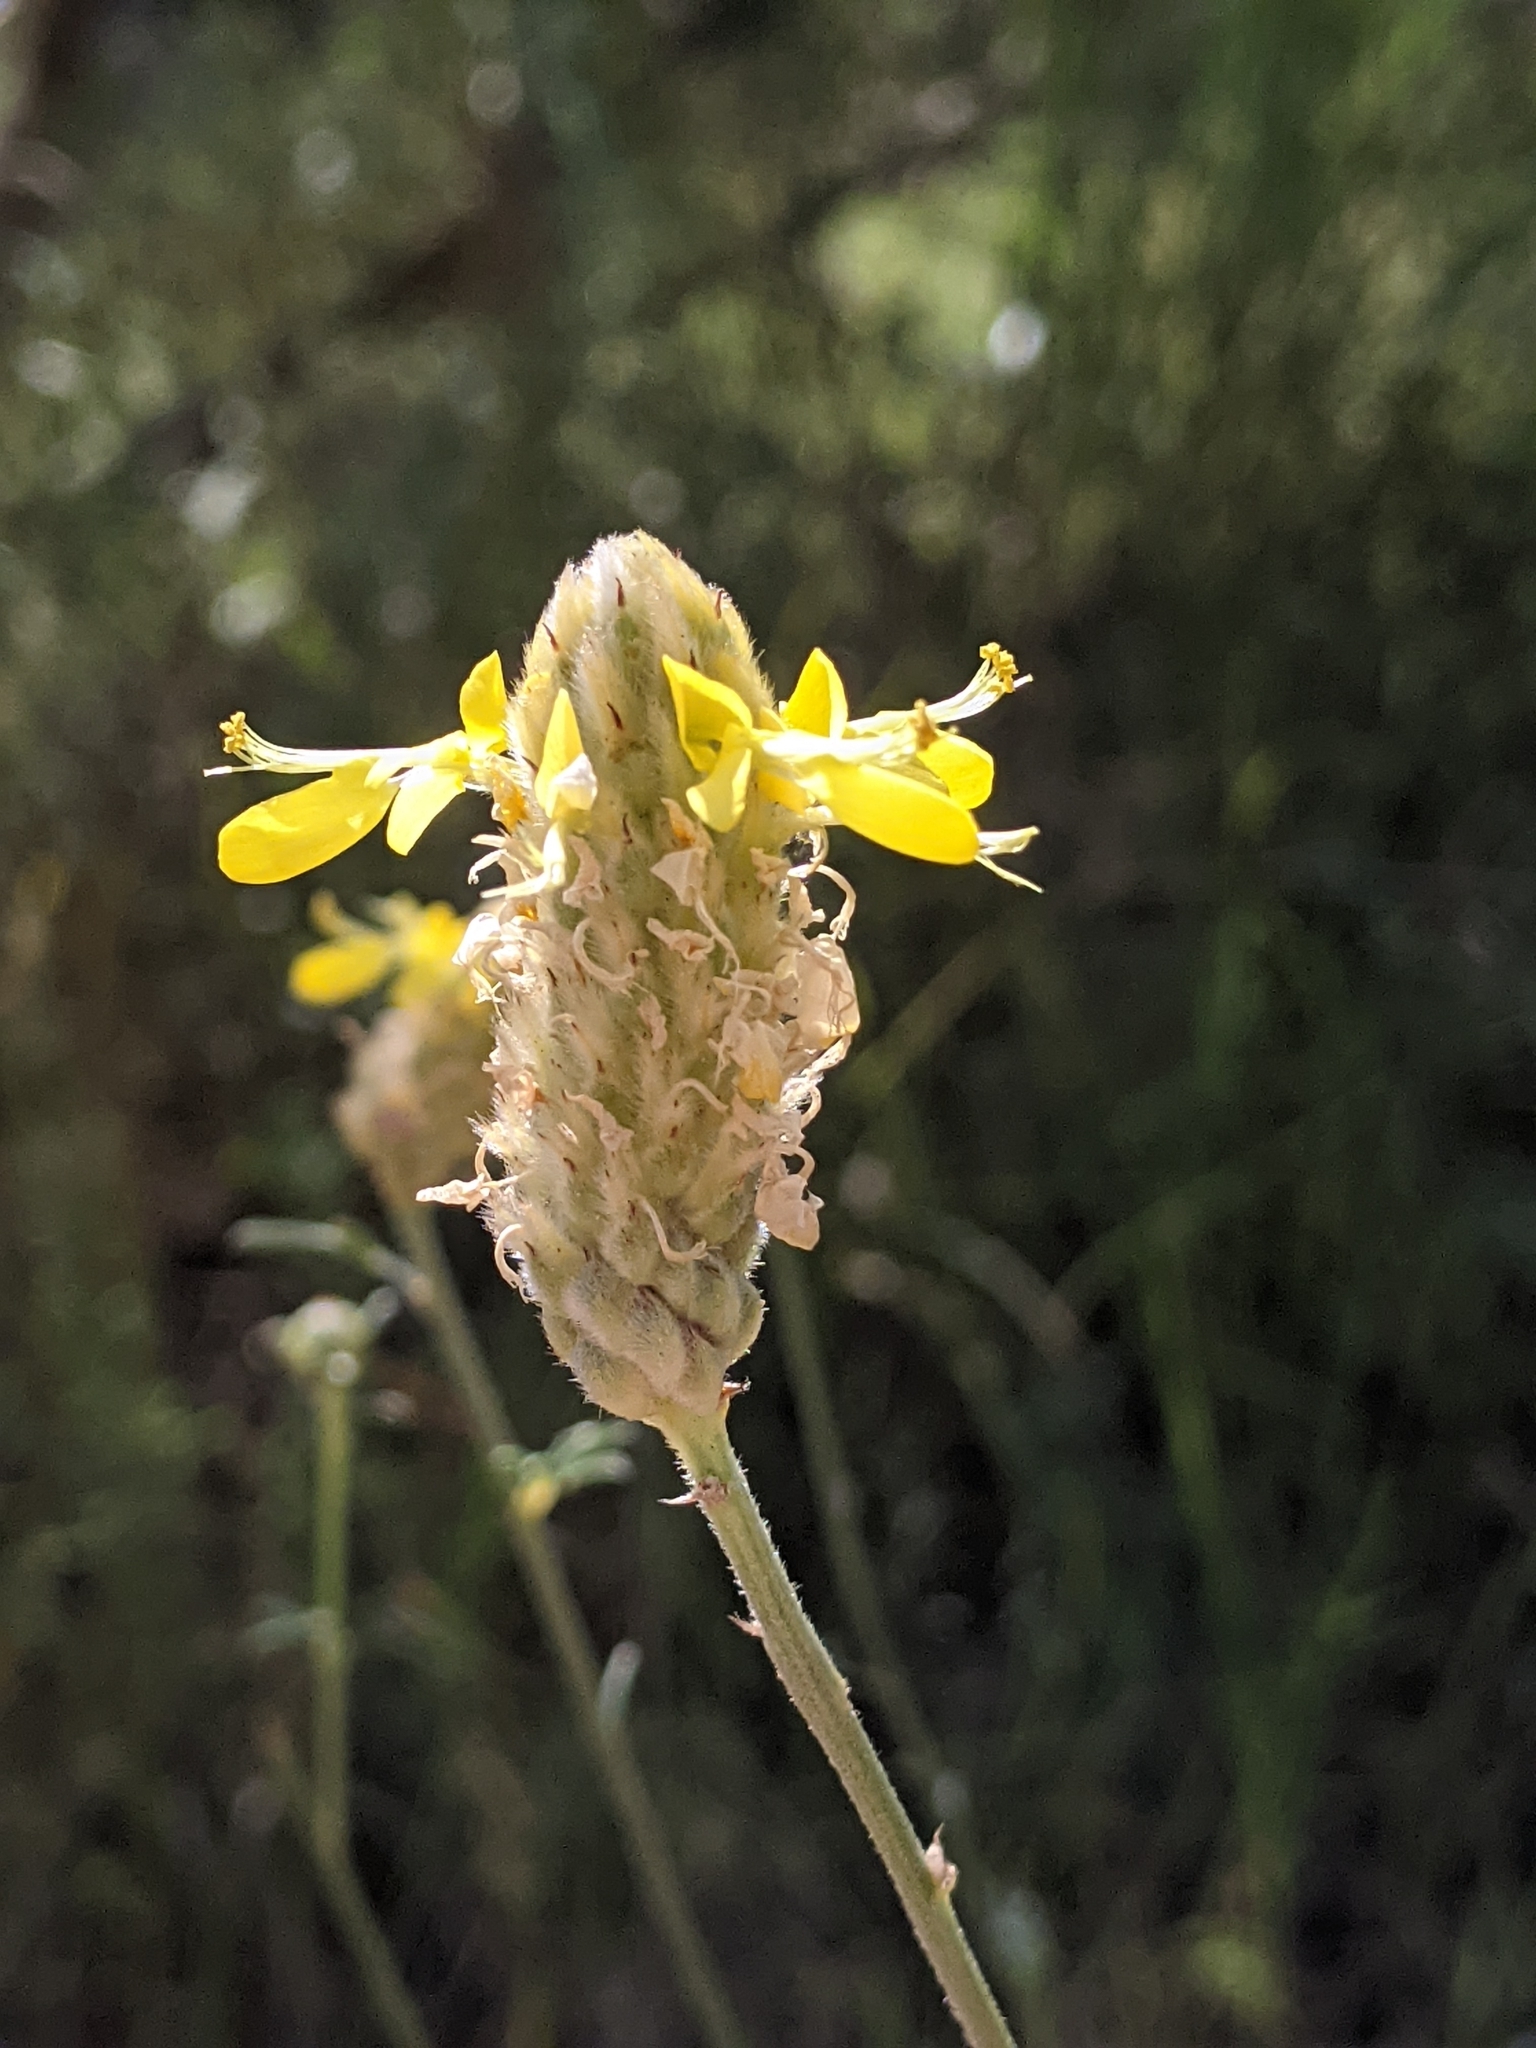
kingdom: Plantae
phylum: Tracheophyta
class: Magnoliopsida
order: Fabales
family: Fabaceae
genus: Dalea
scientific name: Dalea aurea
